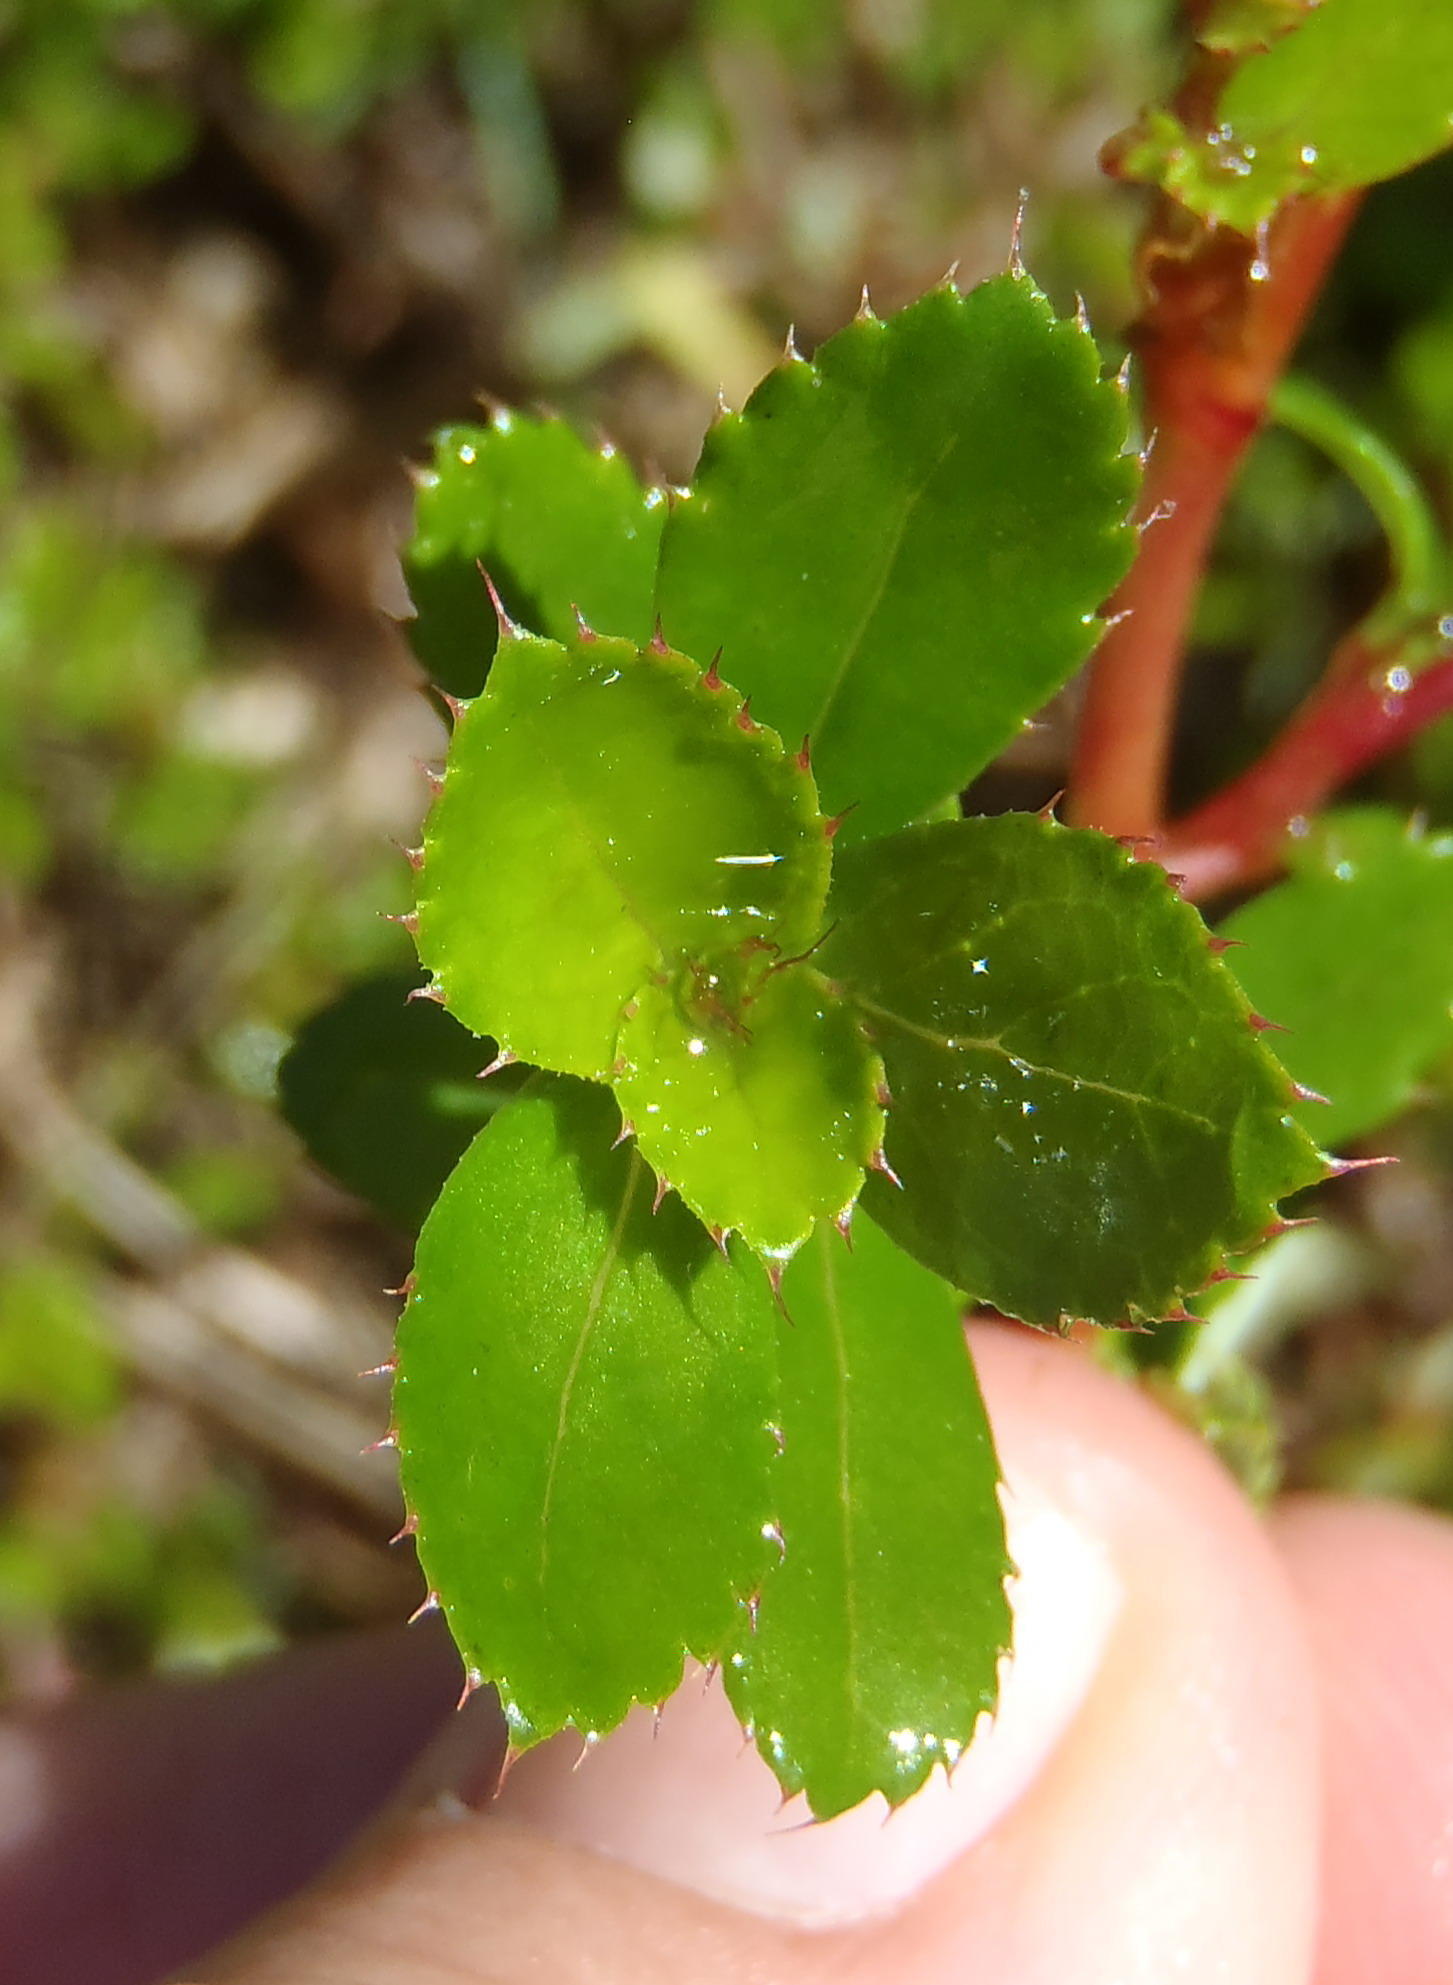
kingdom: Plantae
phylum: Tracheophyta
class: Magnoliopsida
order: Rosales
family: Rosaceae
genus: Cliffortia
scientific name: Cliffortia ferruginea
